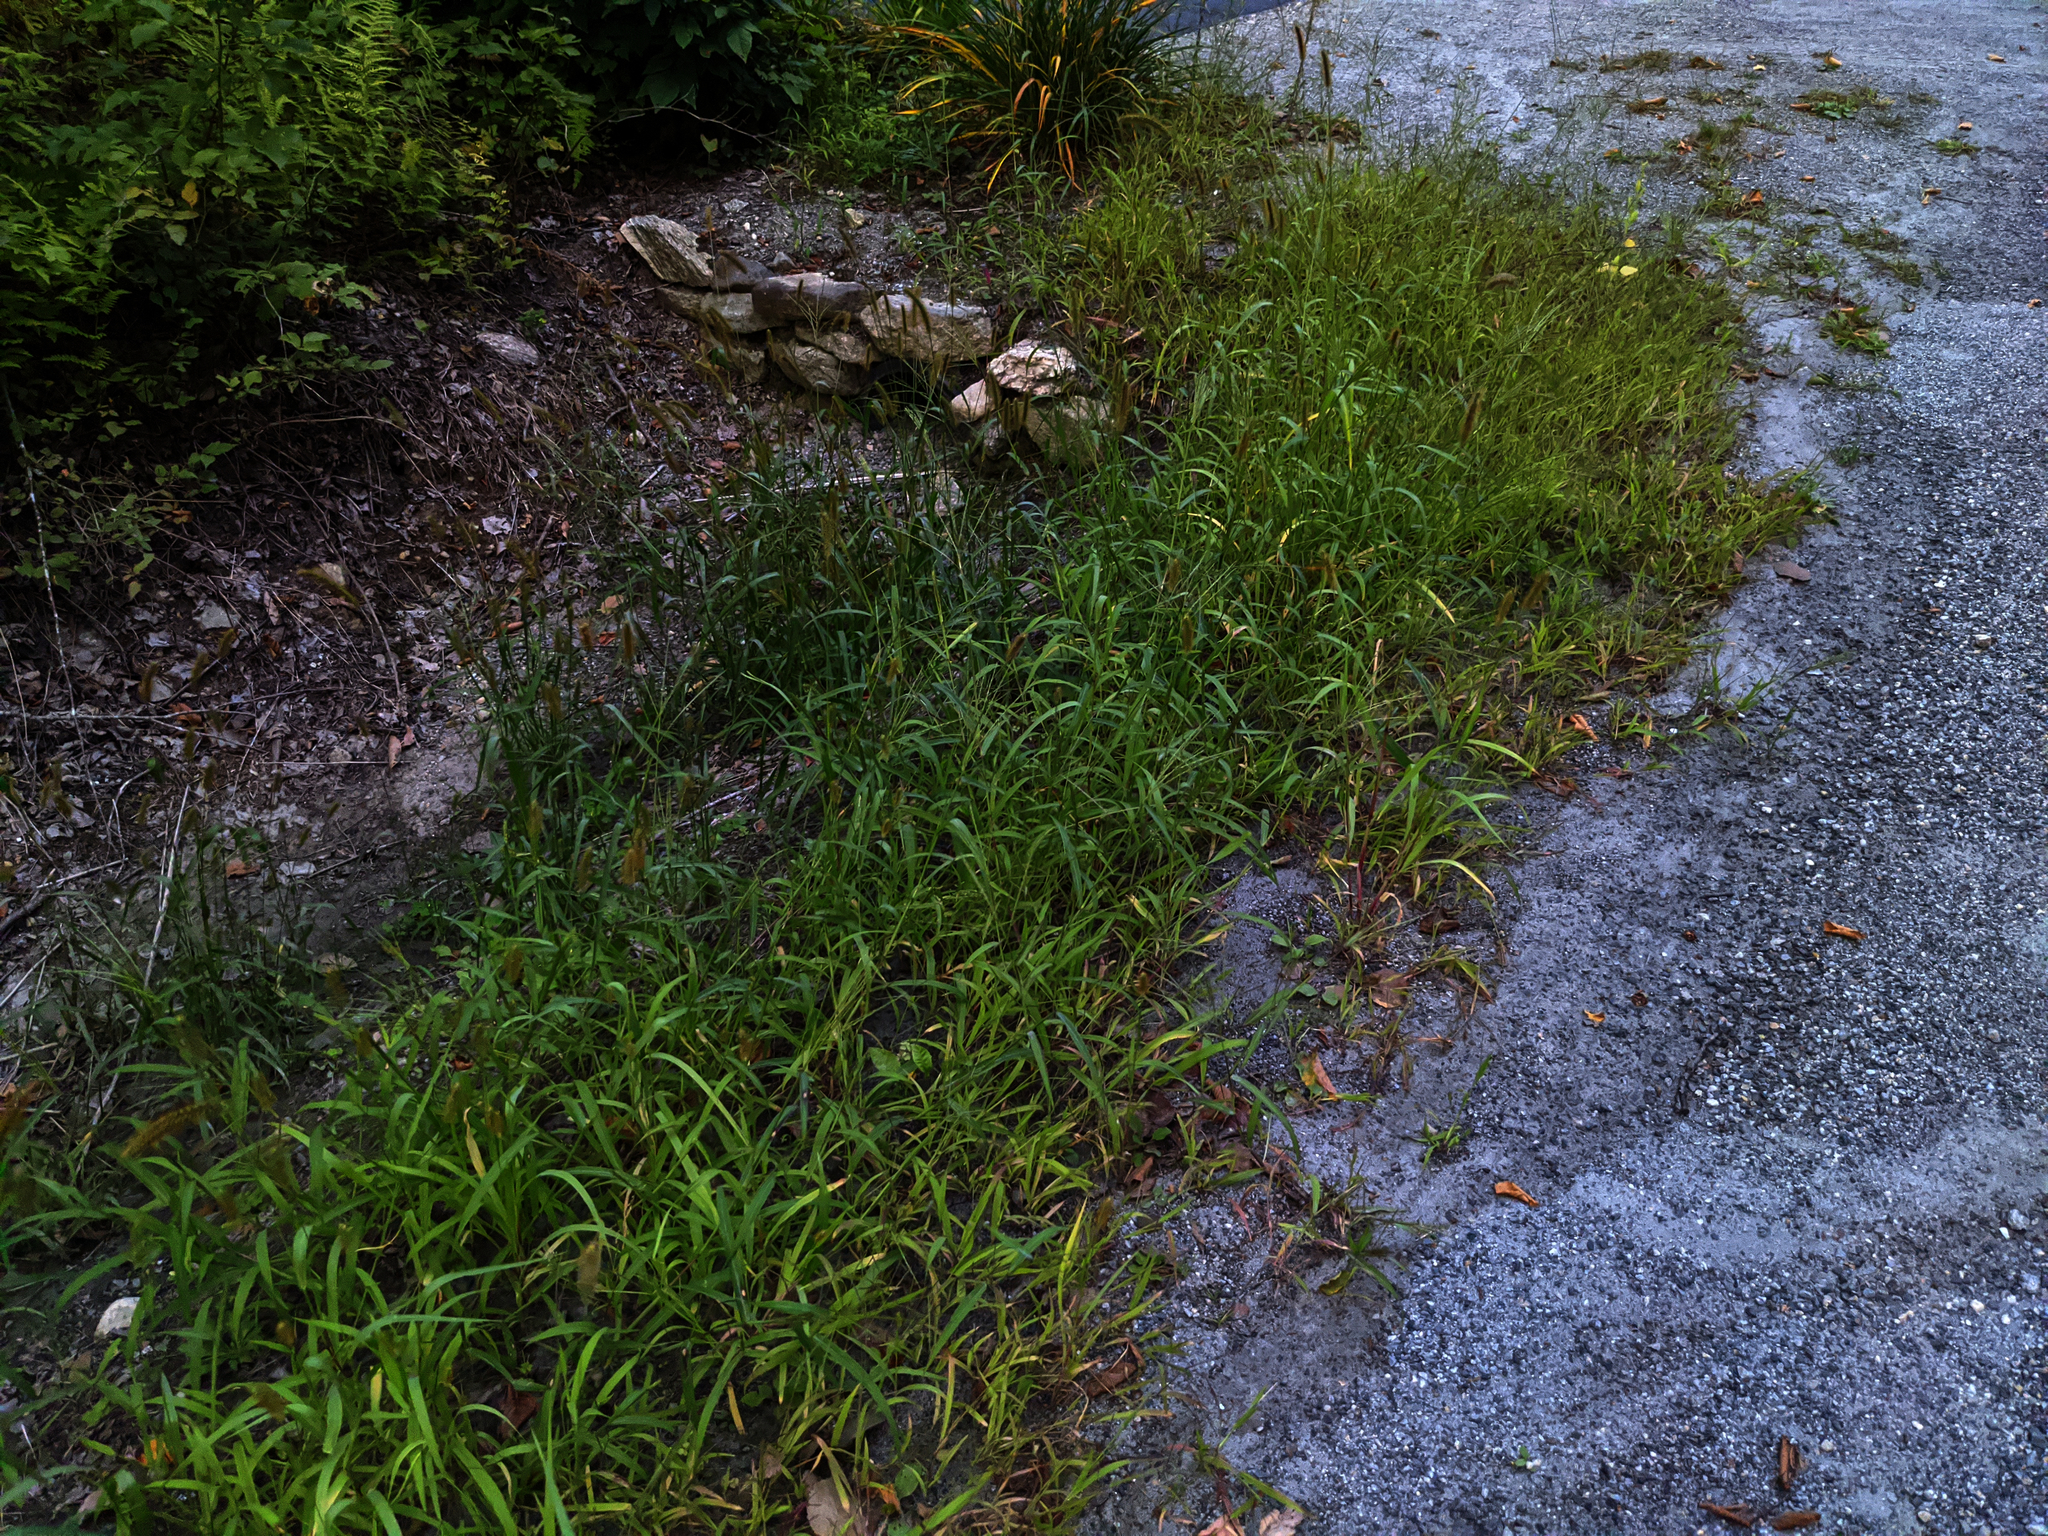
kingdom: Plantae
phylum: Tracheophyta
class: Liliopsida
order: Poales
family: Poaceae
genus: Setaria
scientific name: Setaria pumila
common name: Yellow bristle-grass
